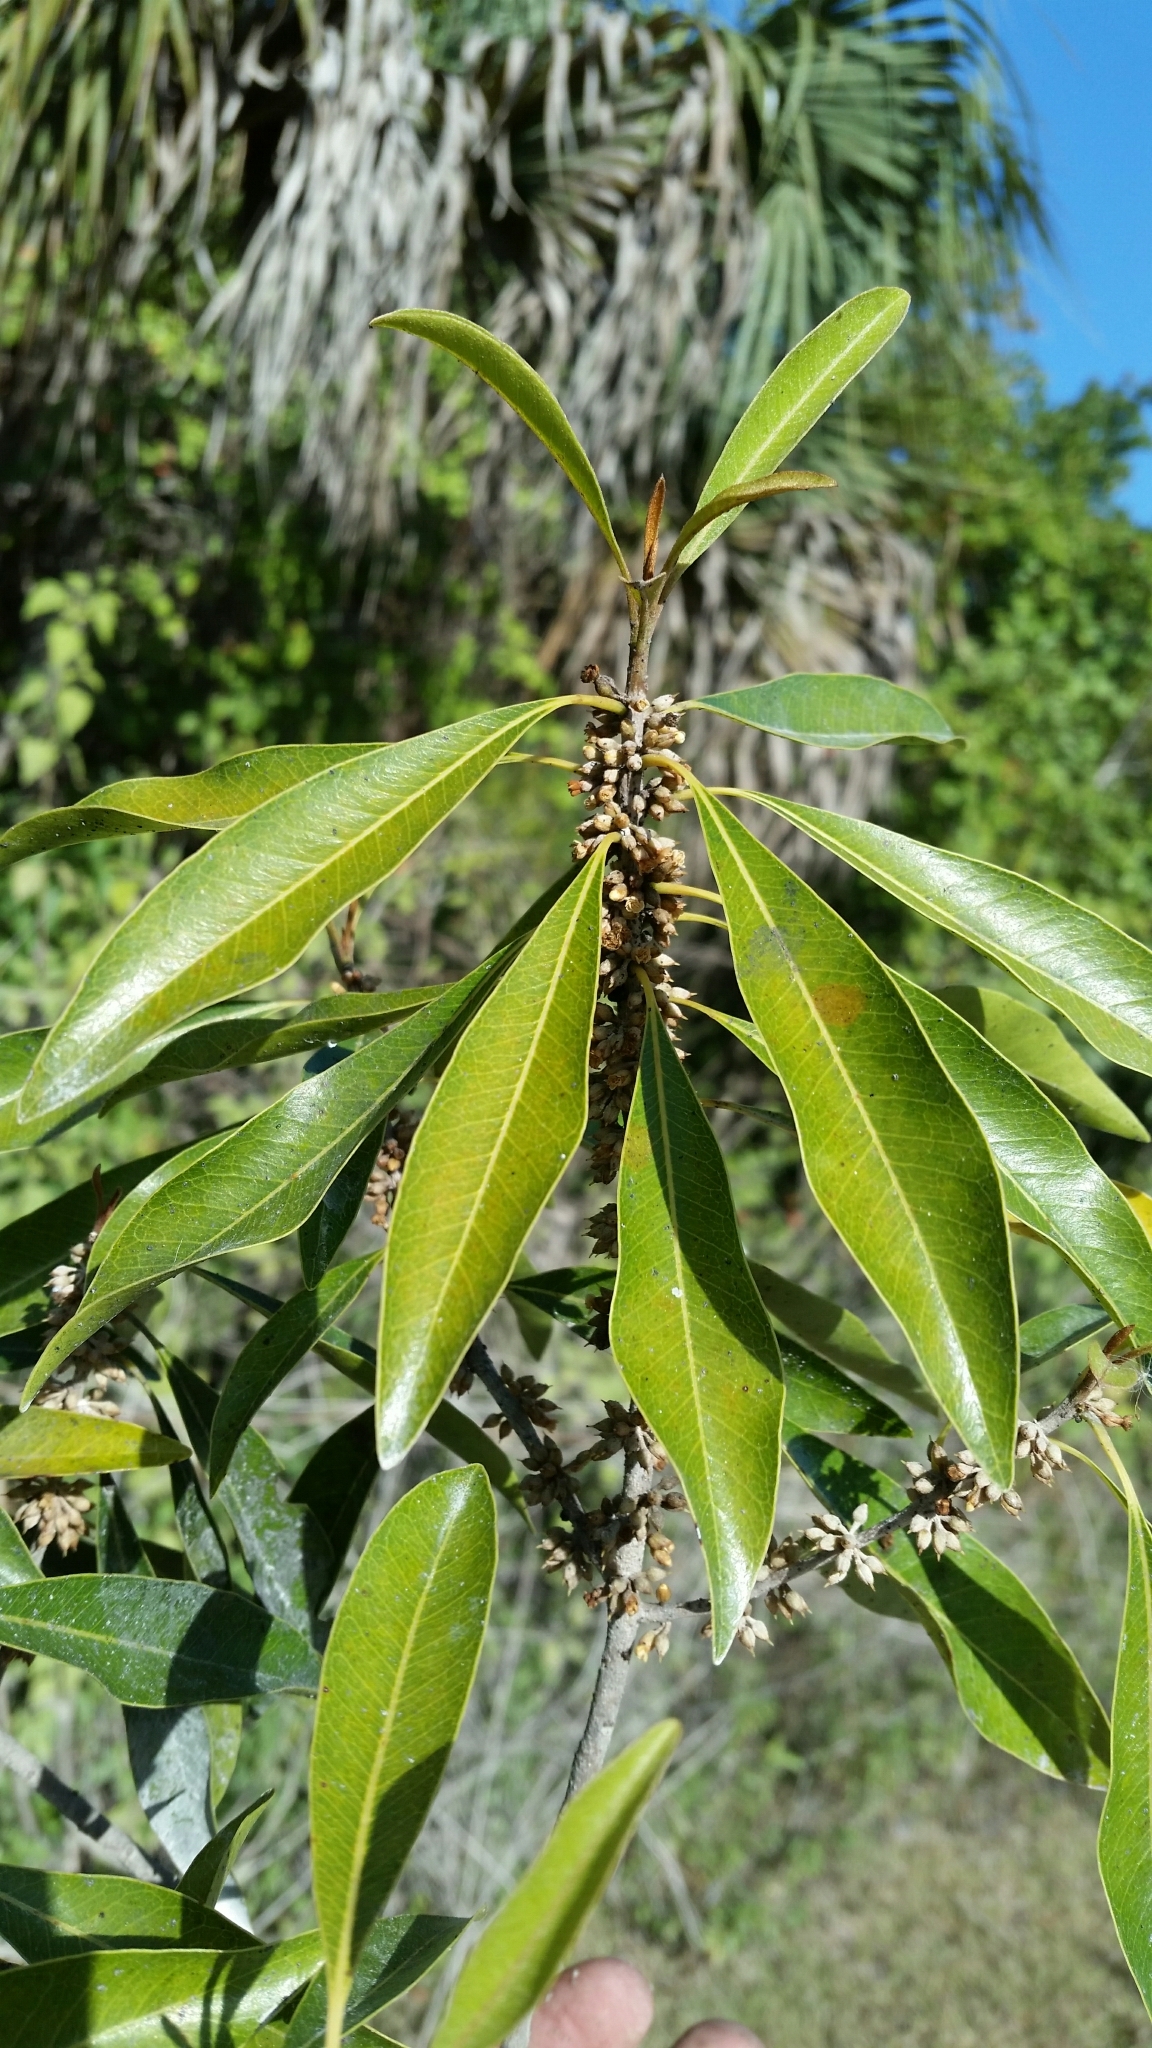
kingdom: Plantae
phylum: Tracheophyta
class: Magnoliopsida
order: Ericales
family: Sapotaceae
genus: Sideroxylon
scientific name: Sideroxylon salicifolium
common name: White bully
